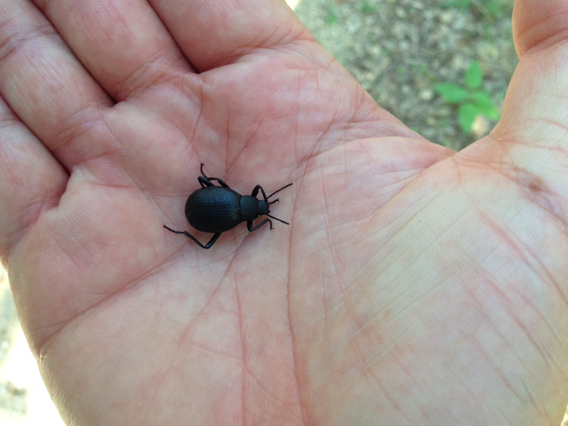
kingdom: Animalia
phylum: Arthropoda
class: Insecta
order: Coleoptera
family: Tenebrionidae
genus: Eleodes
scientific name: Eleodes goryi
